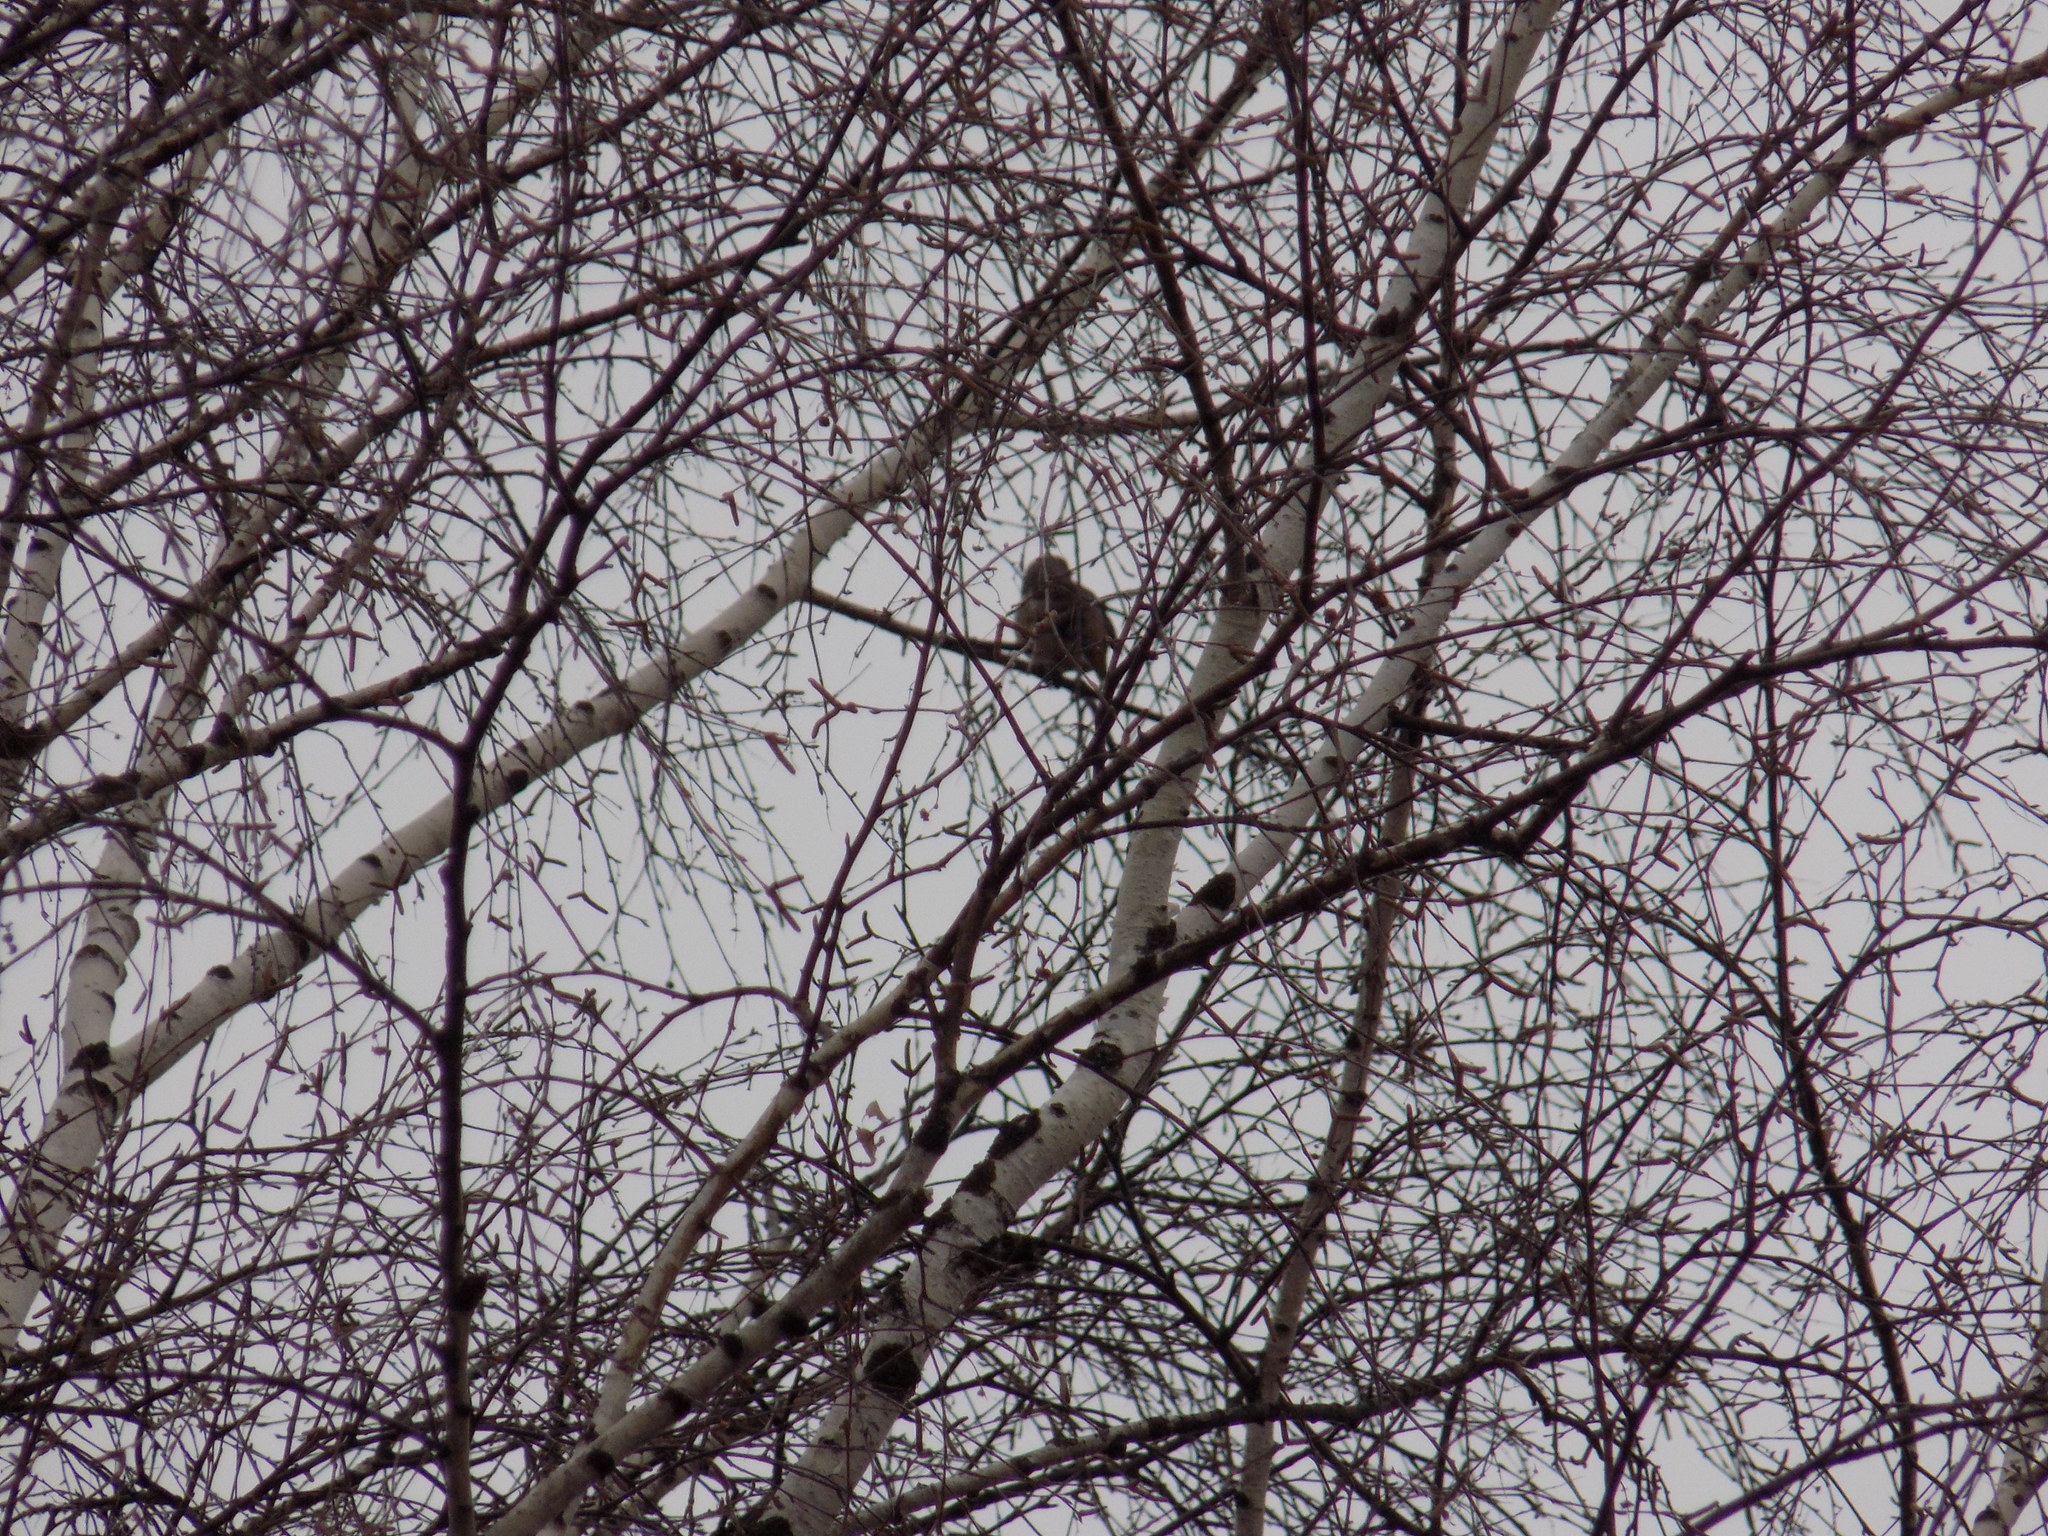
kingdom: Animalia
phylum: Chordata
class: Aves
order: Passeriformes
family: Fringillidae
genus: Coccothraustes
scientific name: Coccothraustes coccothraustes
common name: Hawfinch
